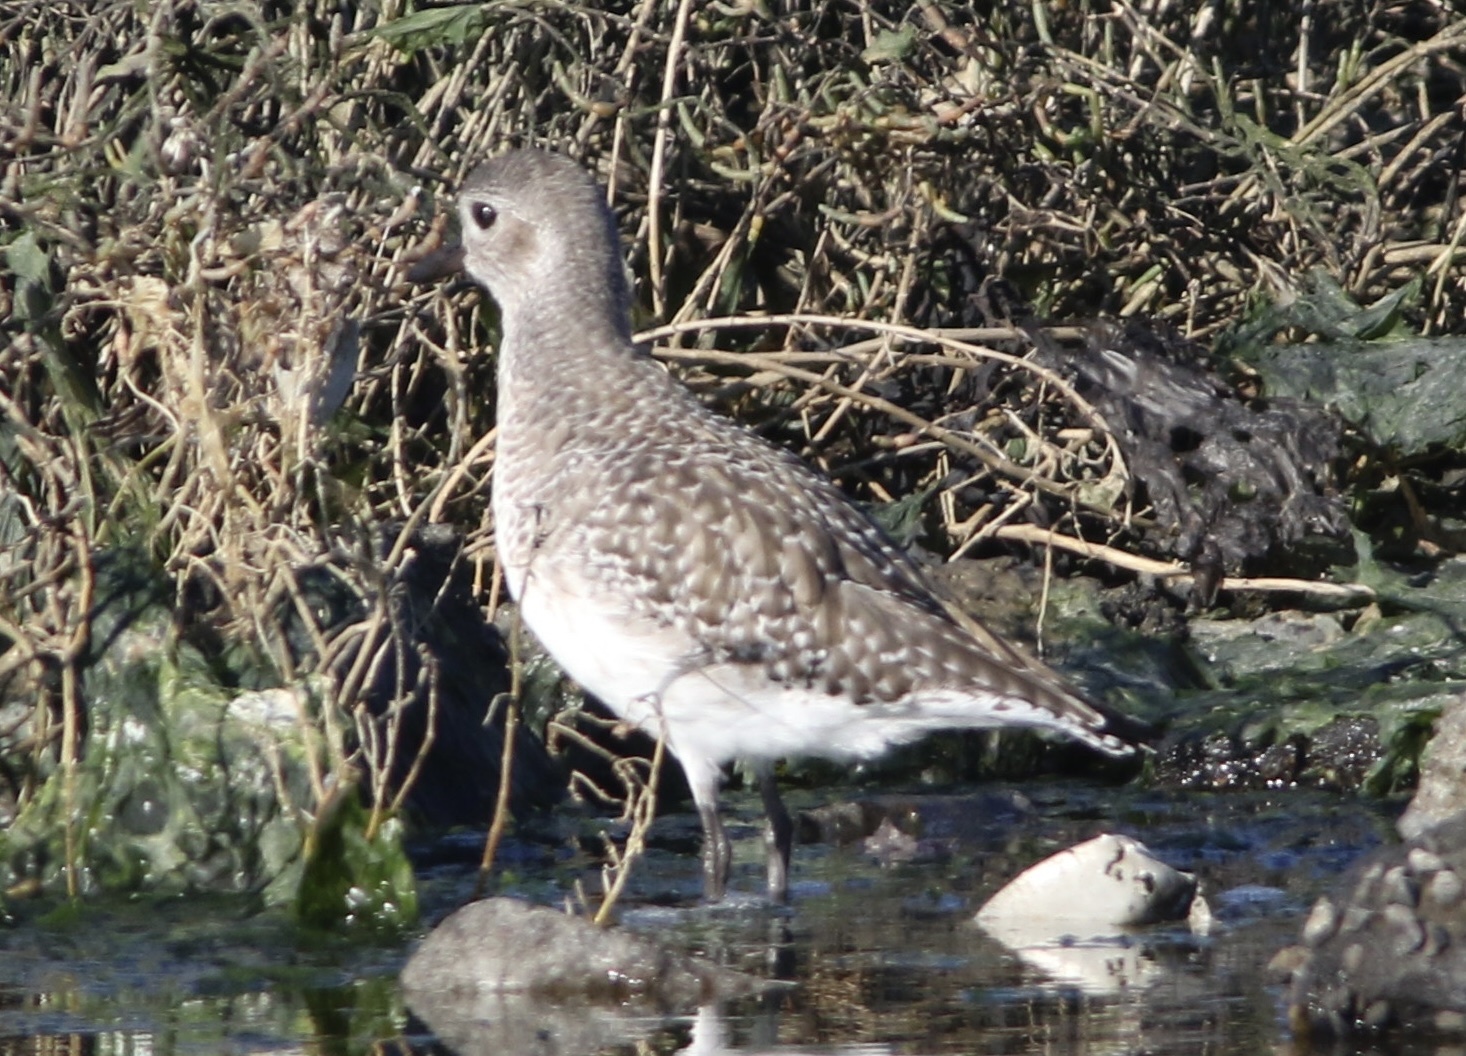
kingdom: Animalia
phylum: Chordata
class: Aves
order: Charadriiformes
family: Charadriidae
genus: Pluvialis
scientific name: Pluvialis squatarola
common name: Grey plover
